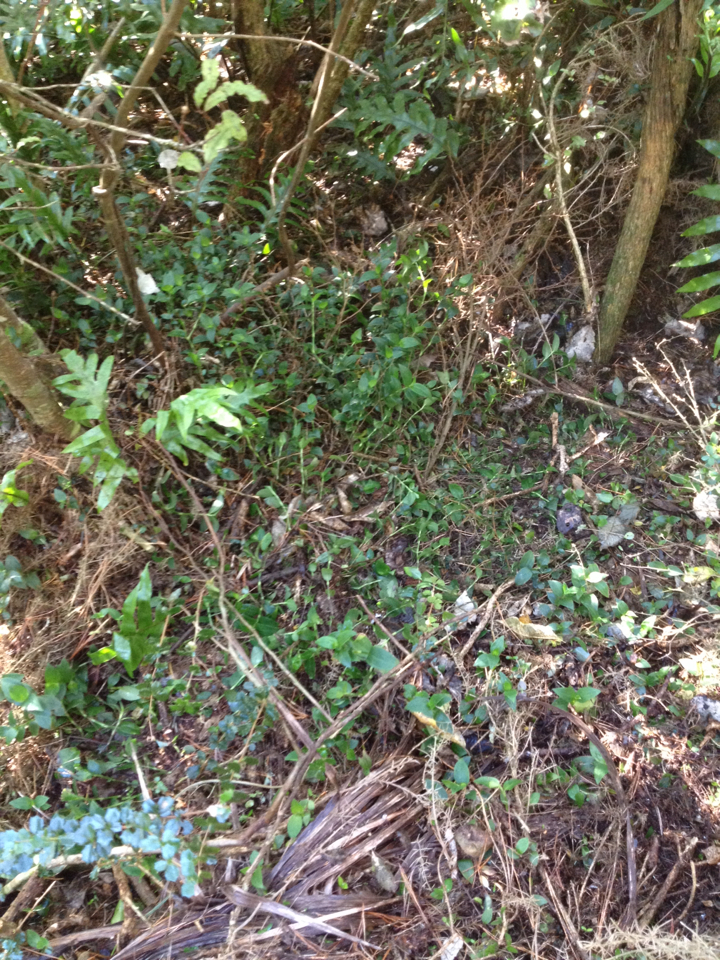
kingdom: Plantae
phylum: Tracheophyta
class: Liliopsida
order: Commelinales
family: Commelinaceae
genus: Tradescantia
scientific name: Tradescantia fluminensis
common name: Wandering-jew
